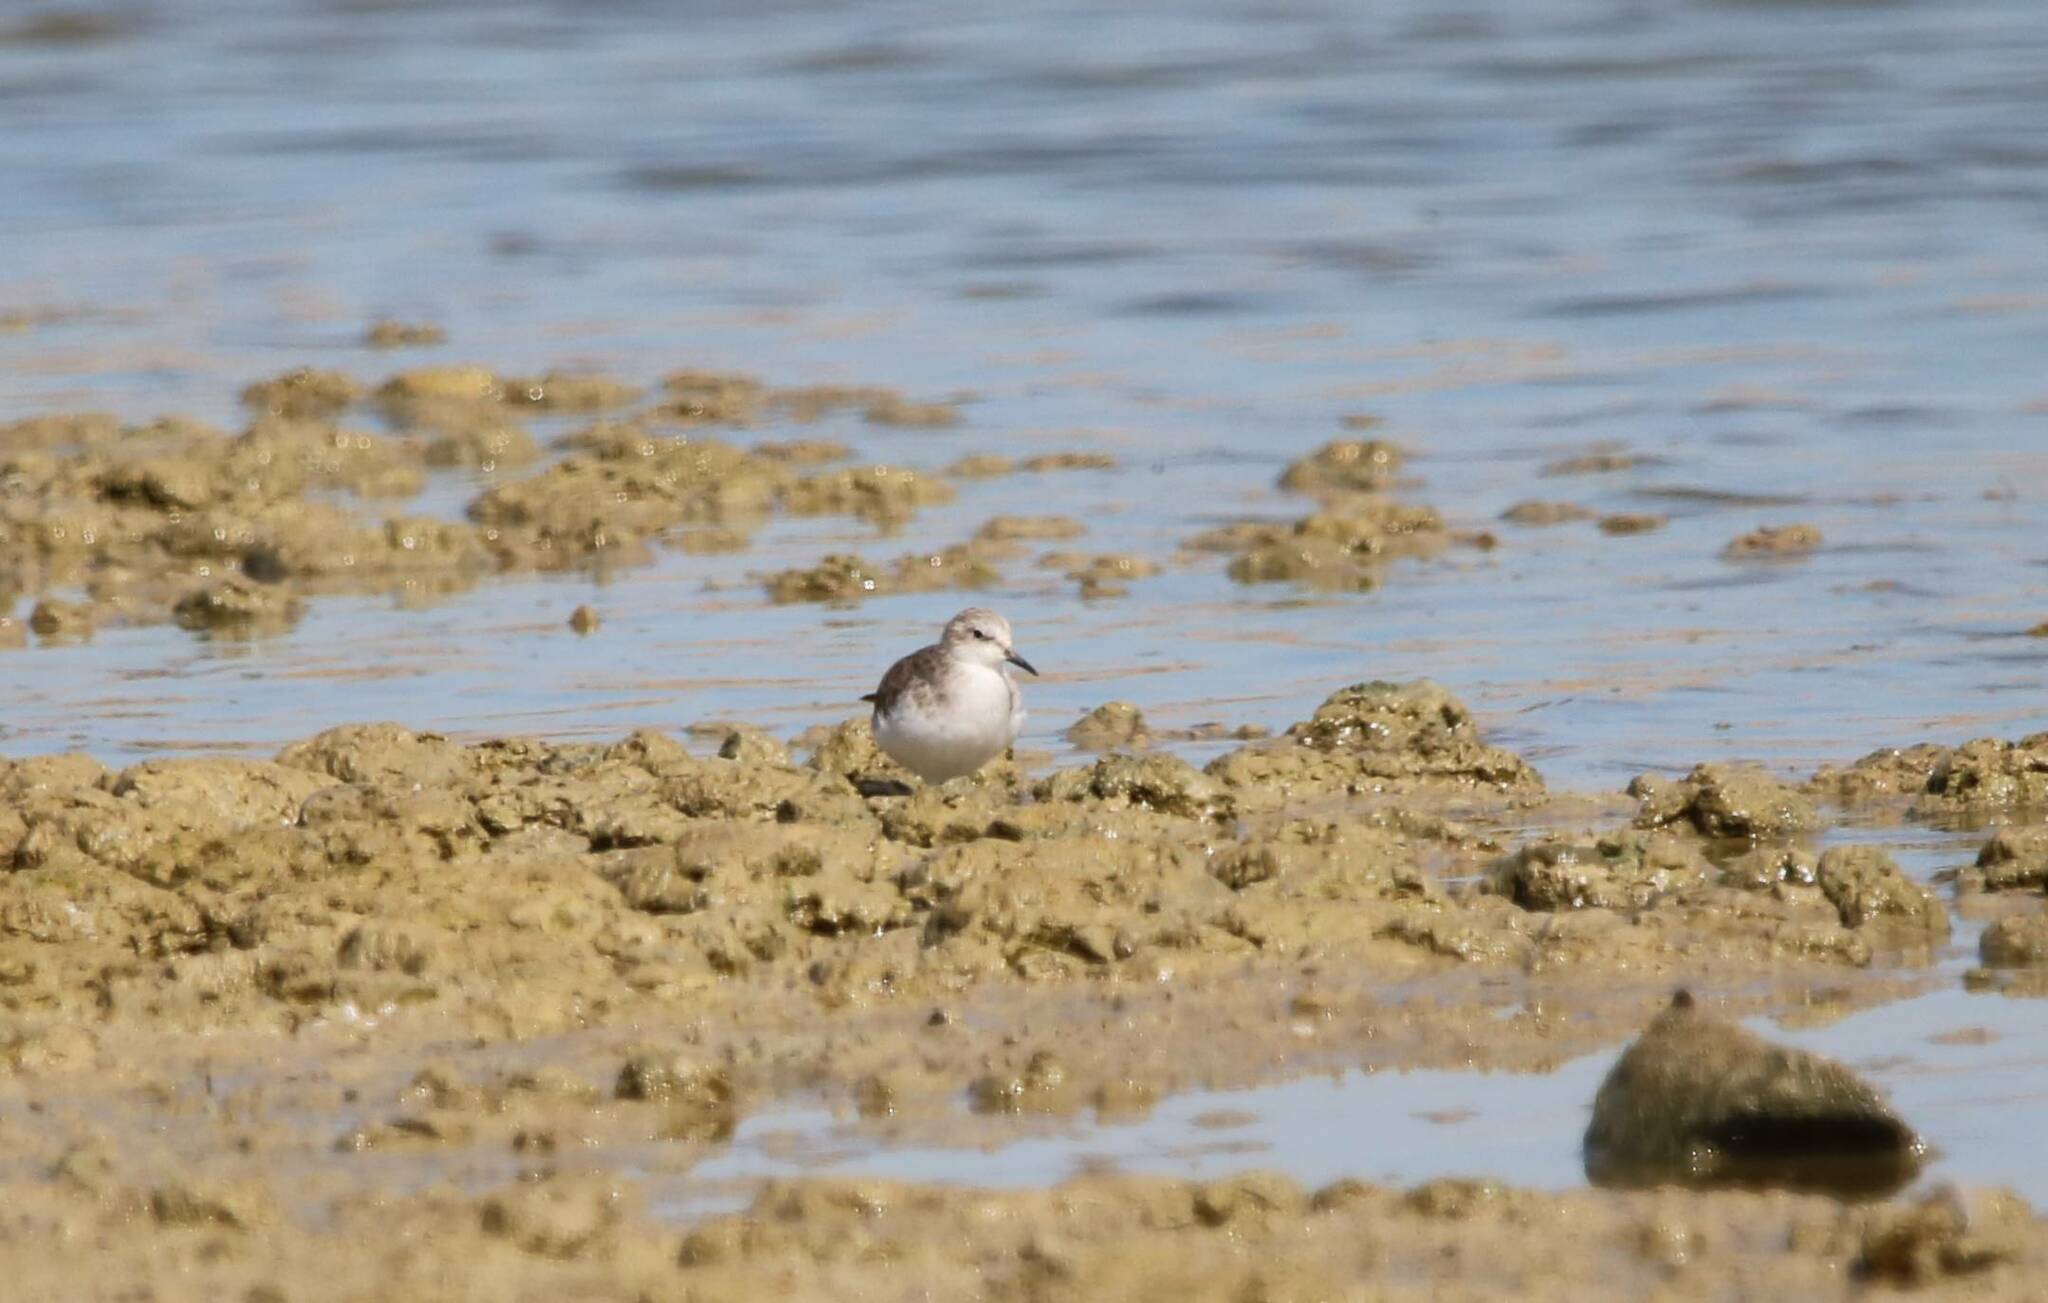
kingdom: Animalia
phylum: Chordata
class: Aves
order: Charadriiformes
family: Scolopacidae
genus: Calidris
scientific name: Calidris minuta
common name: Little stint
